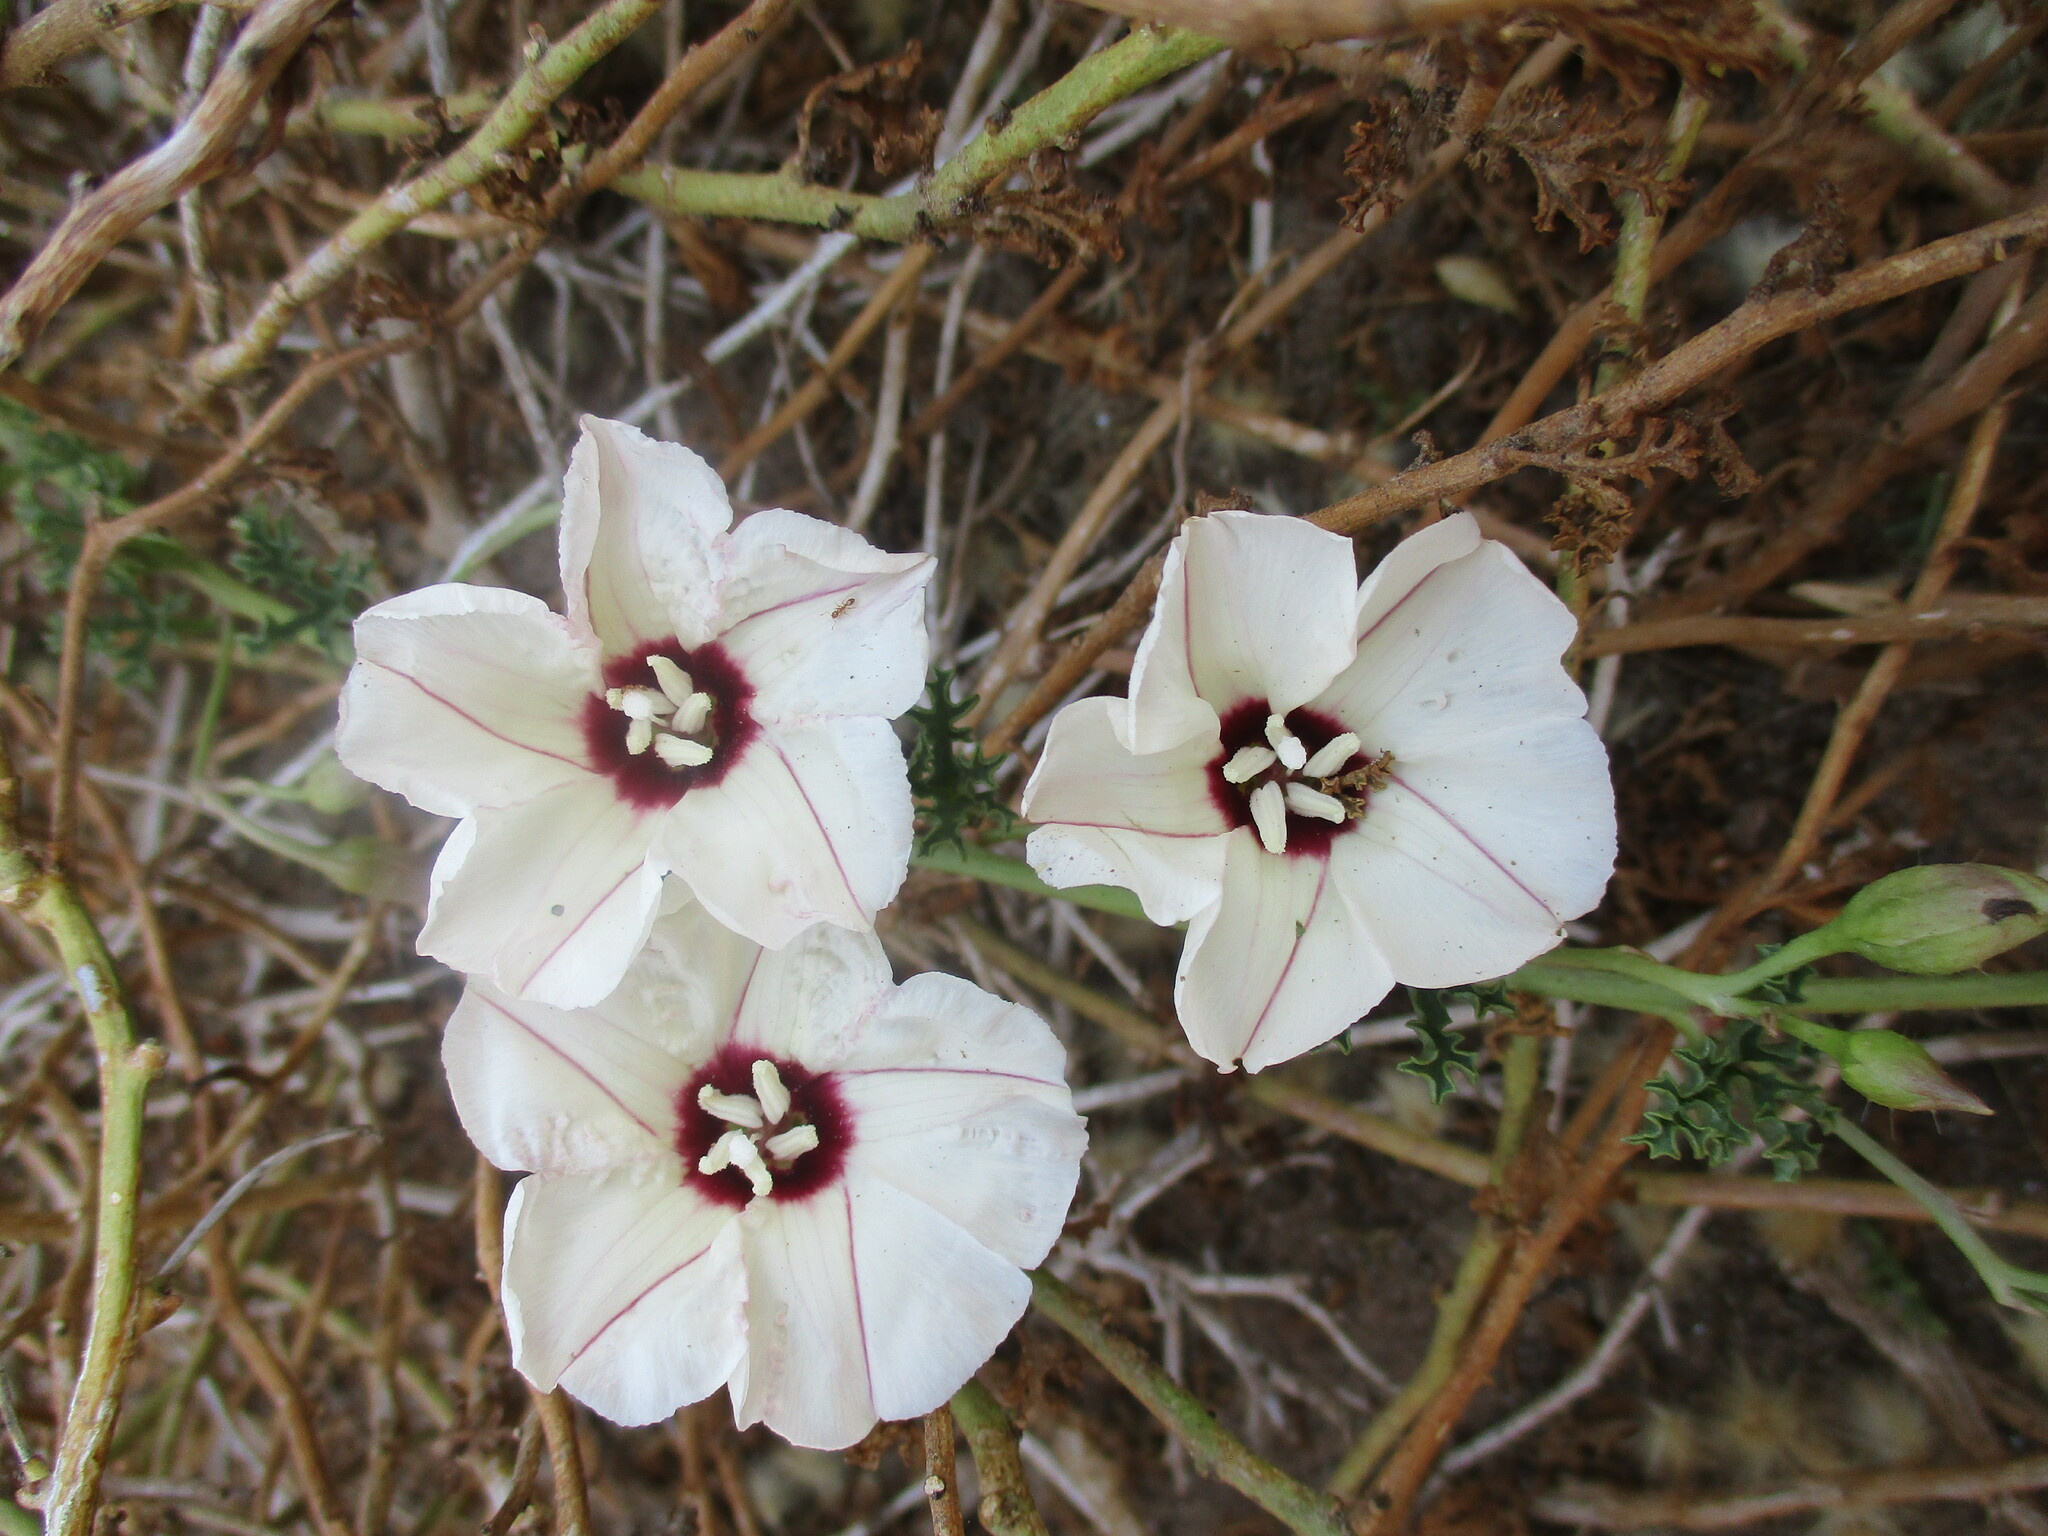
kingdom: Plantae
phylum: Tracheophyta
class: Magnoliopsida
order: Solanales
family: Convolvulaceae
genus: Distimake
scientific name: Distimake multisectus
